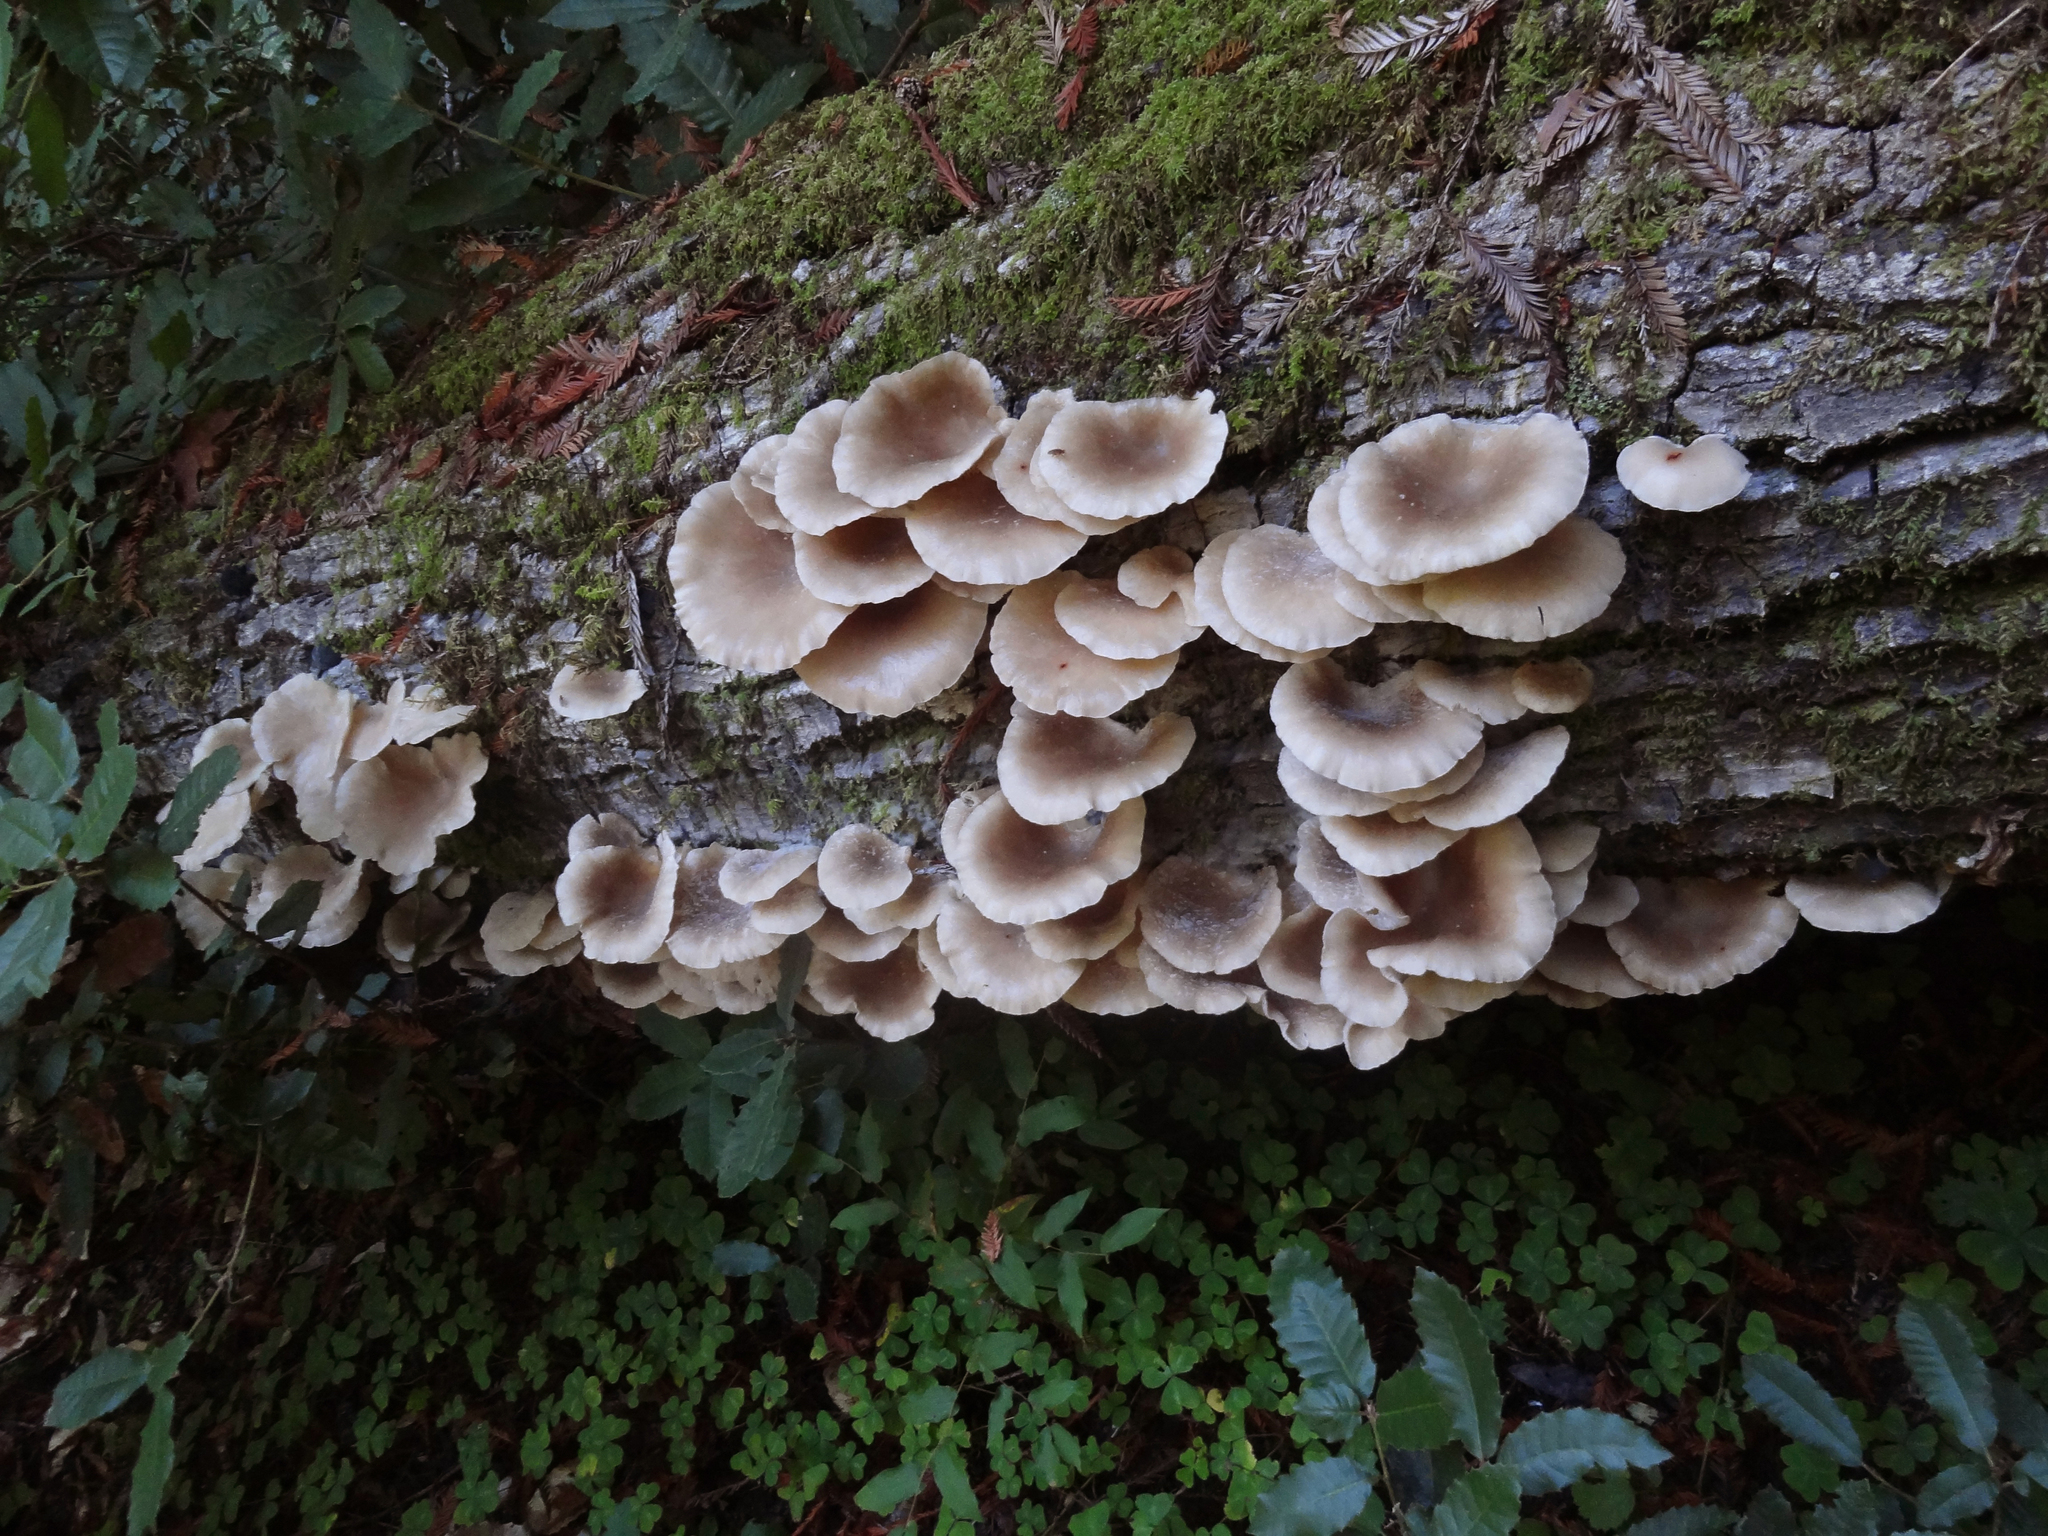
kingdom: Fungi
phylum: Basidiomycota
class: Agaricomycetes
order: Agaricales
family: Pleurotaceae
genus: Pleurotus
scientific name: Pleurotus ostreatus
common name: Oyster mushroom
